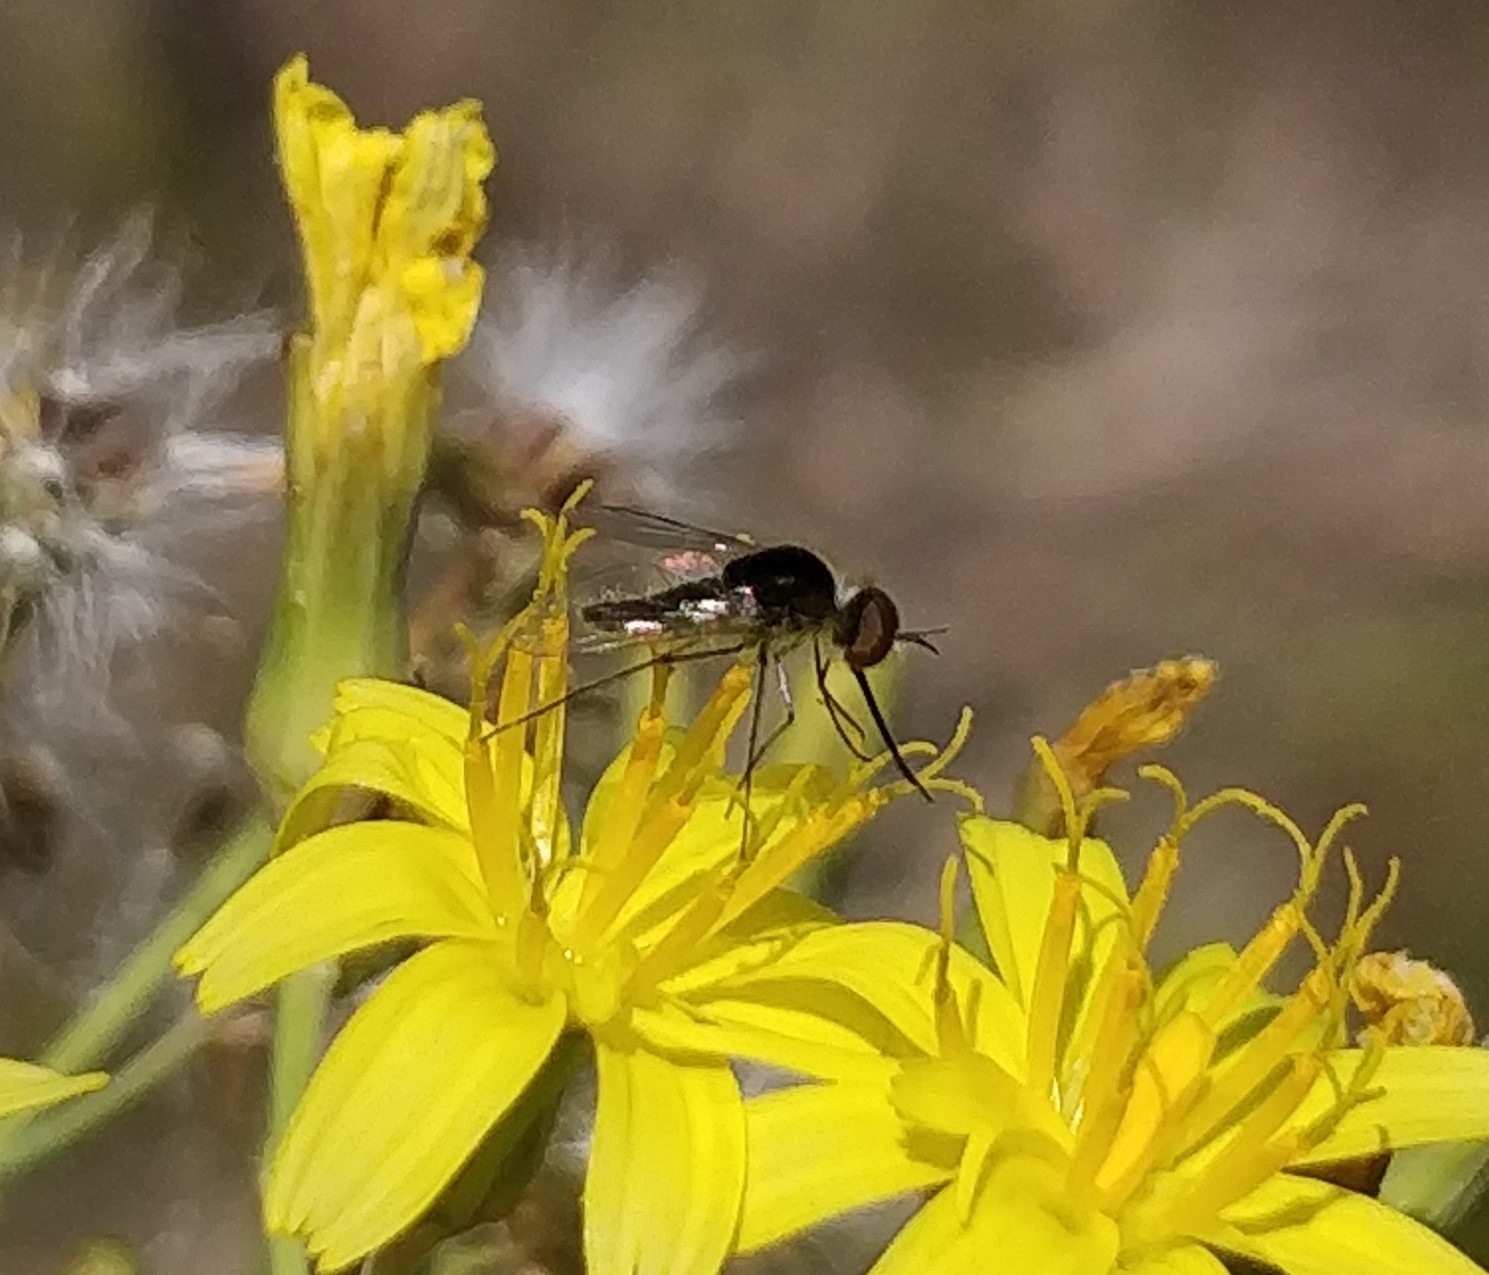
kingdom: Animalia
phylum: Arthropoda
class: Insecta
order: Diptera
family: Bombyliidae
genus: Geron
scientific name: Geron hesperidum
